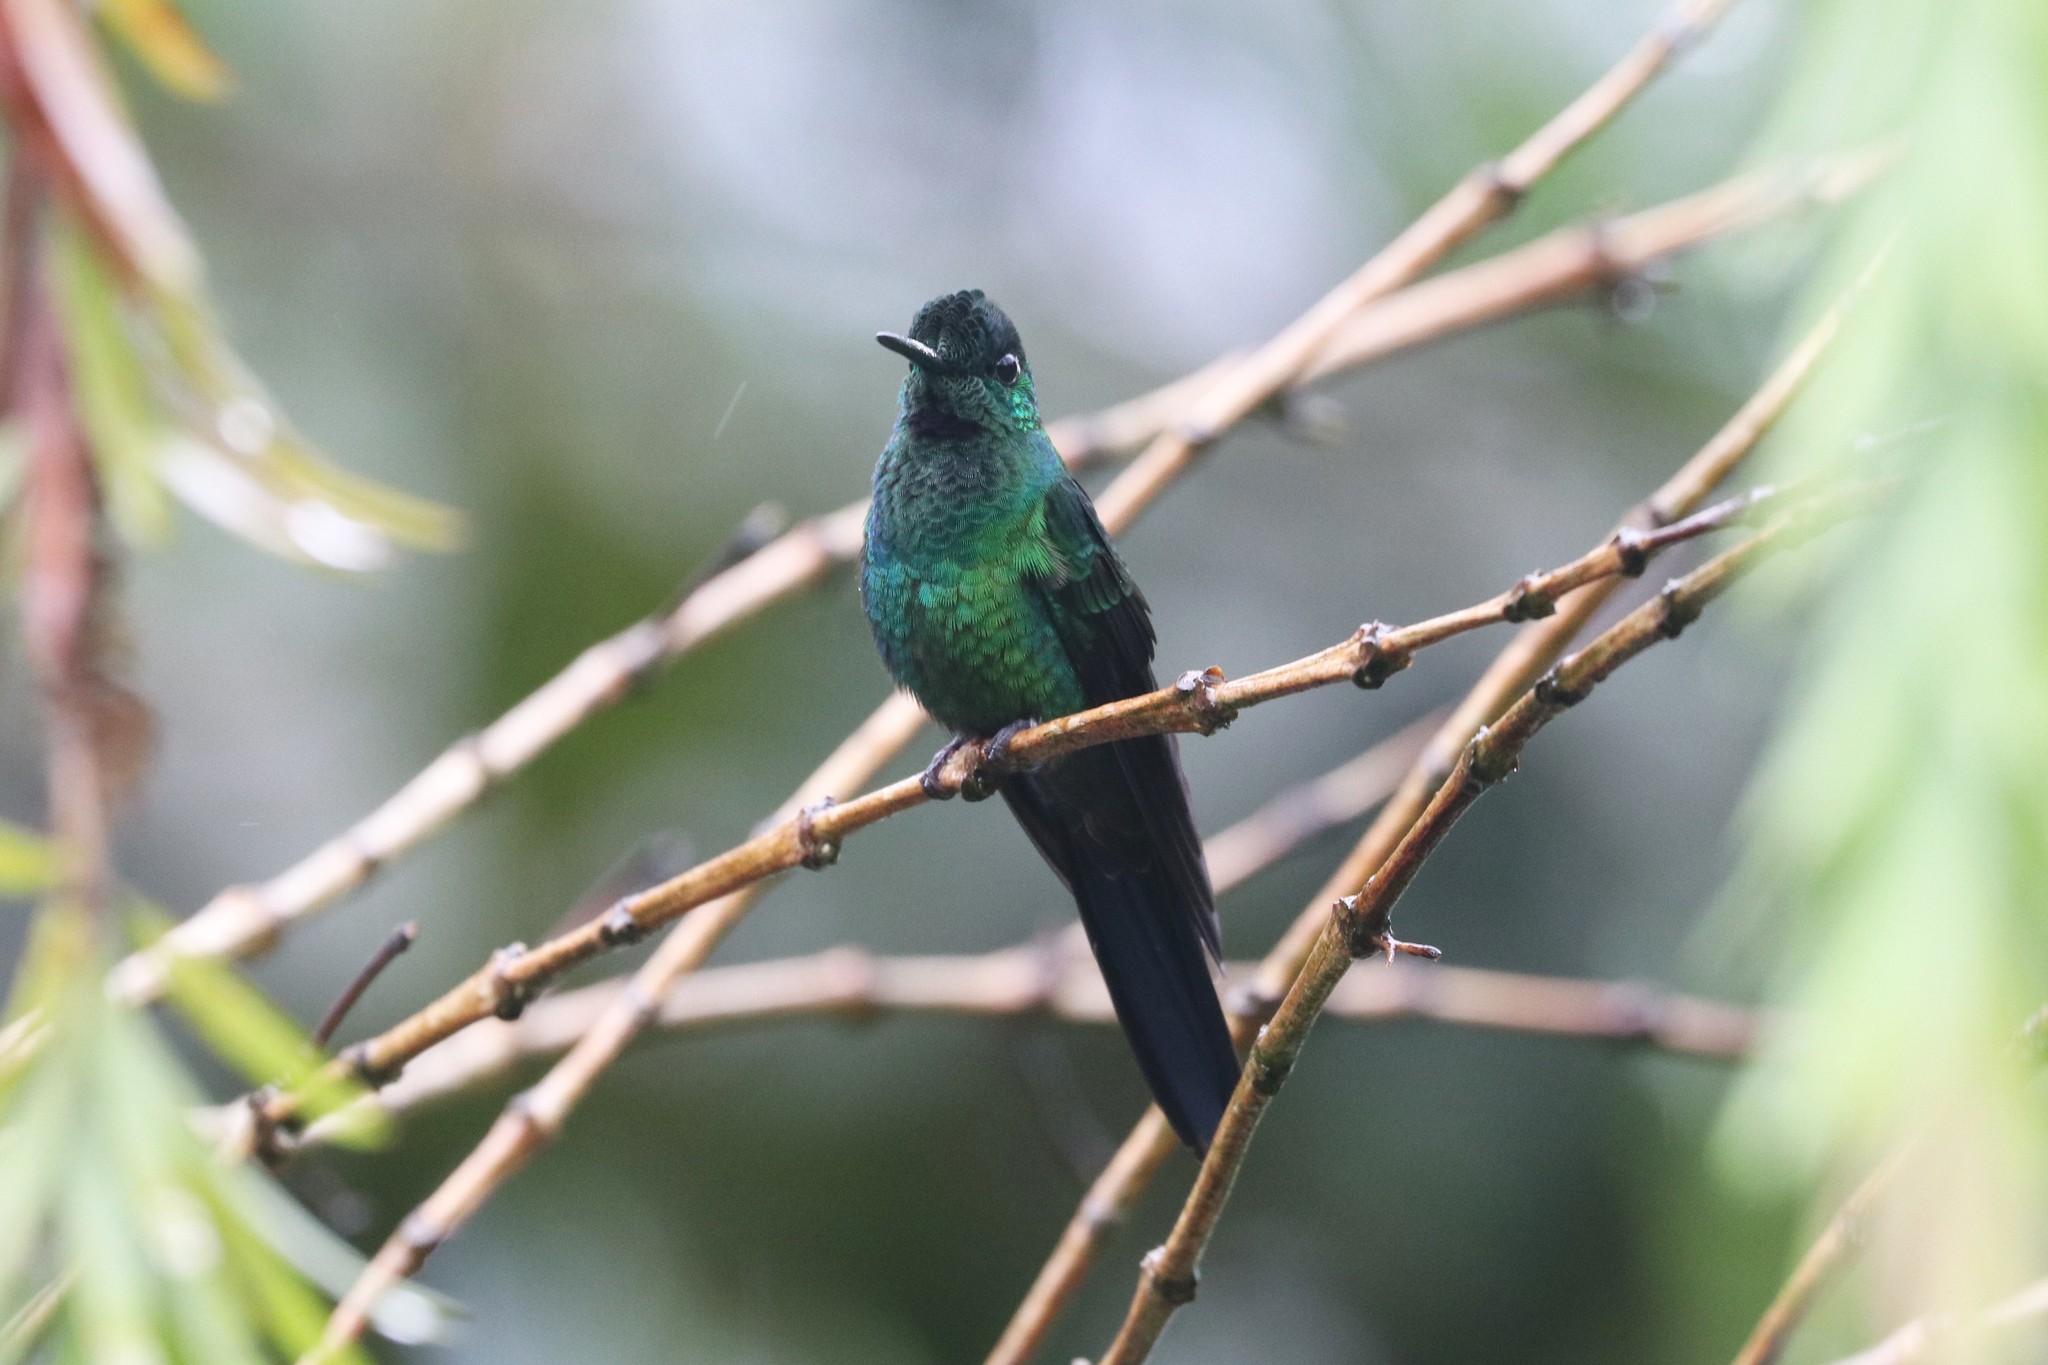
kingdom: Animalia
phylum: Chordata
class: Aves
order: Apodiformes
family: Trochilidae
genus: Heliodoxa
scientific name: Heliodoxa jacula
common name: Green-crowned brilliant
